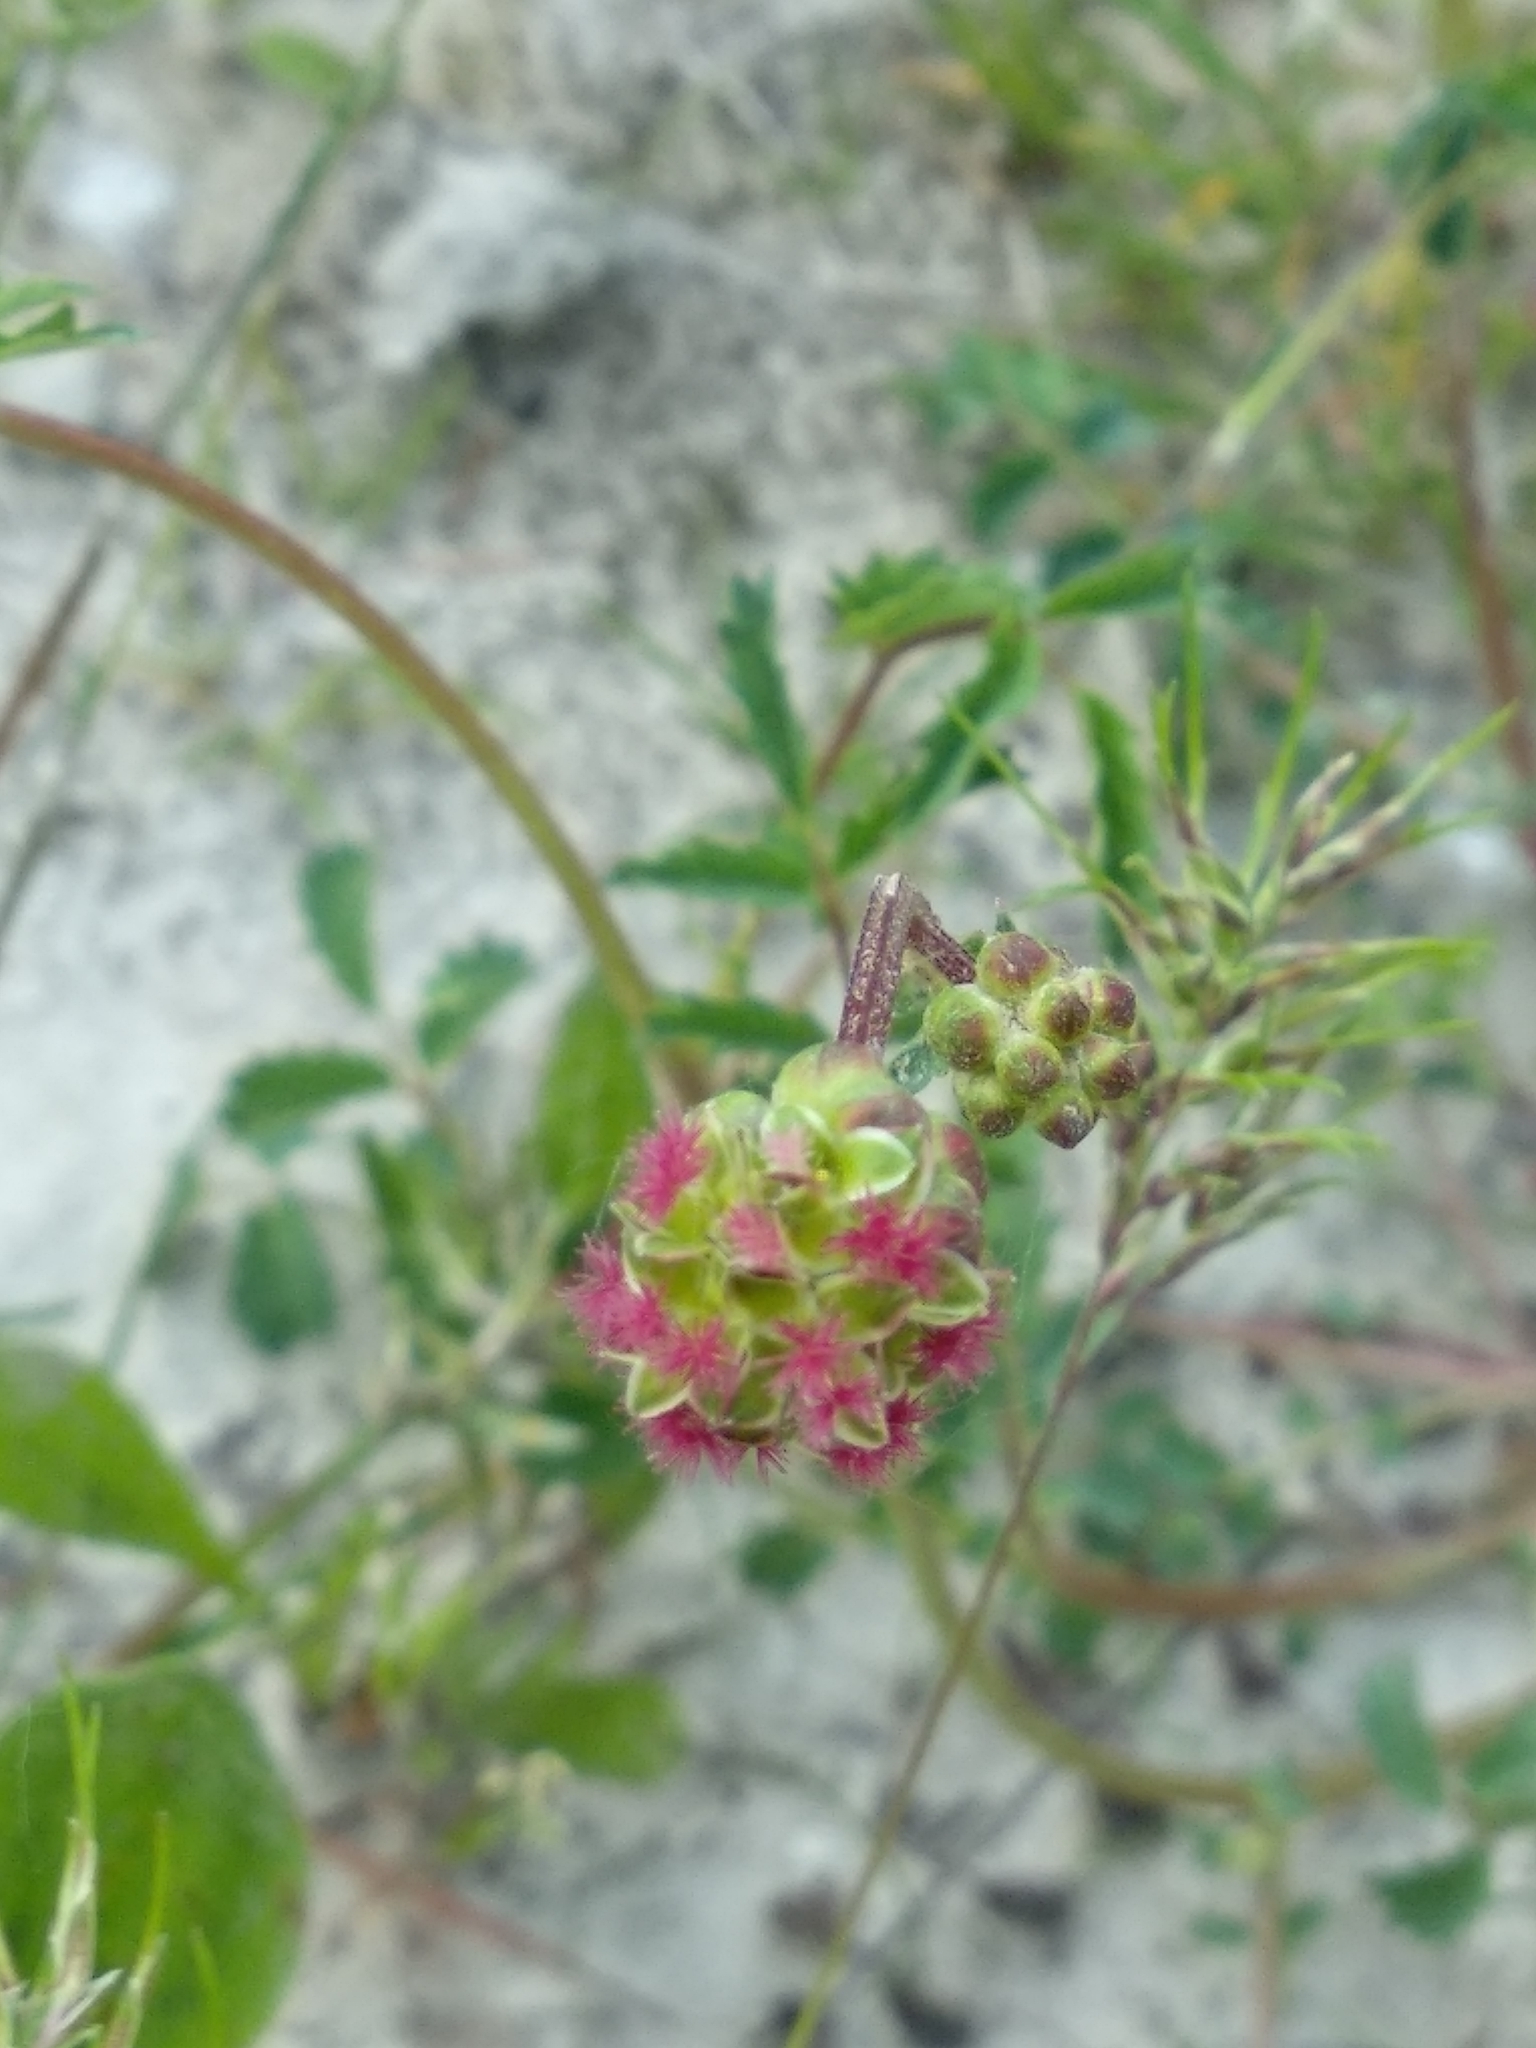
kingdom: Plantae
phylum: Tracheophyta
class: Magnoliopsida
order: Rosales
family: Rosaceae
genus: Poterium
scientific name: Poterium sanguisorba
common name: Salad burnet
